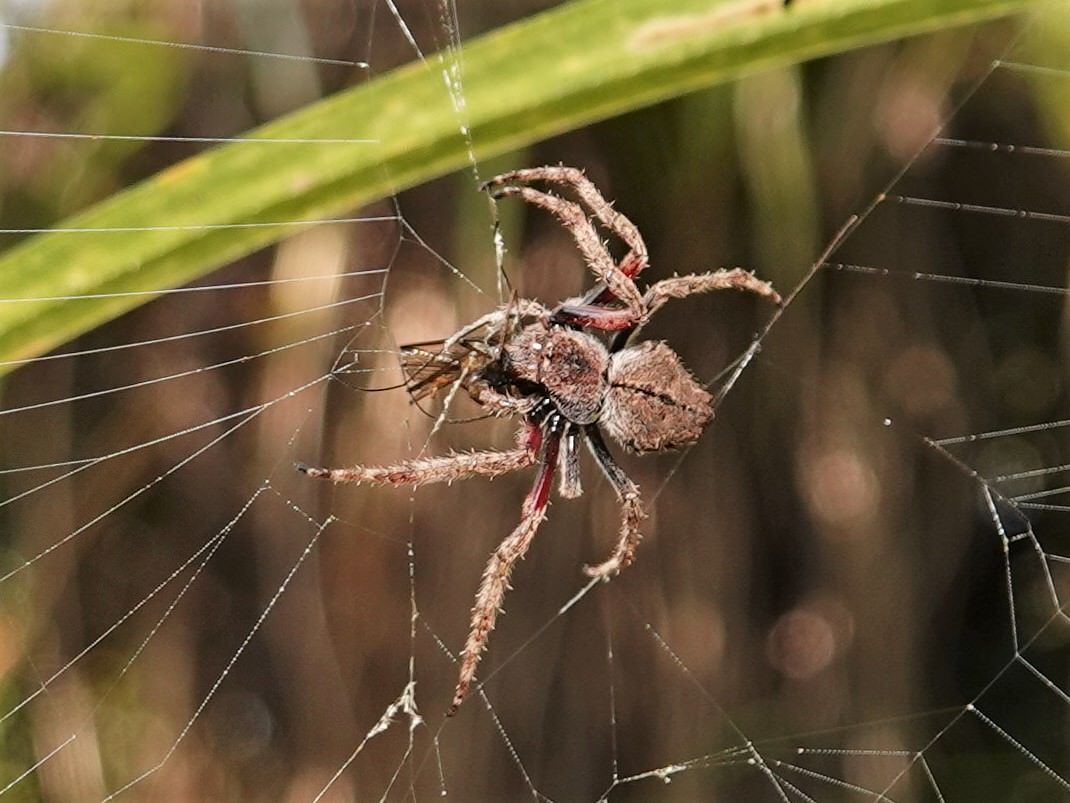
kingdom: Animalia
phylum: Arthropoda
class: Arachnida
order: Araneae
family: Araneidae
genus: Eriophora
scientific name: Eriophora pustulosa
